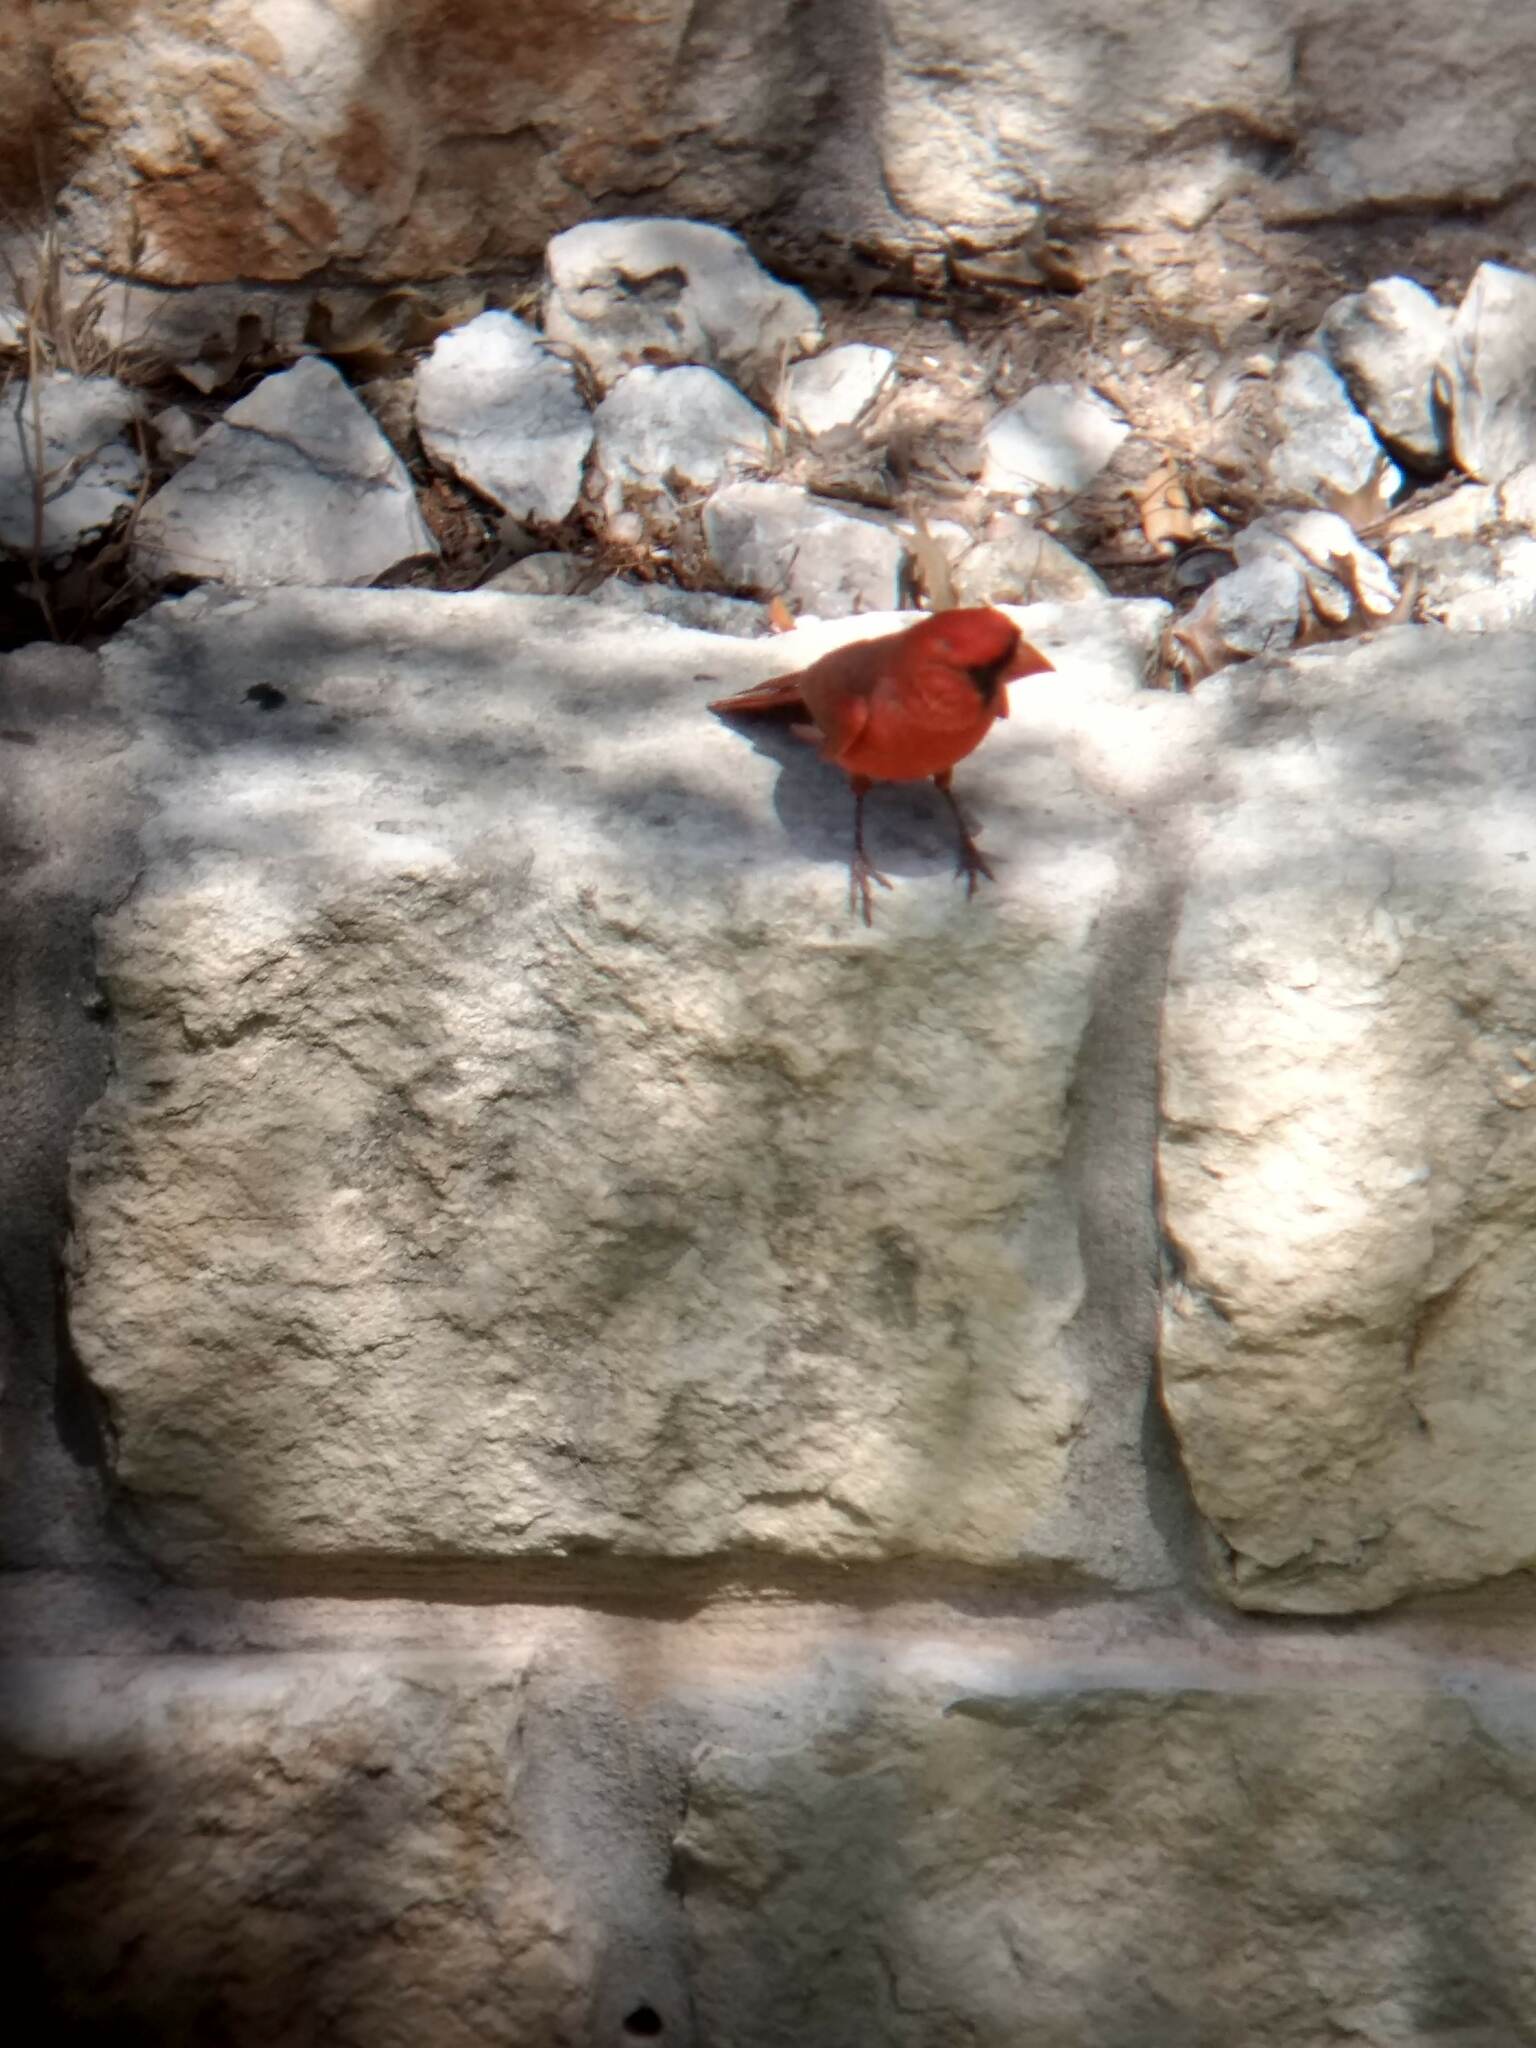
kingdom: Animalia
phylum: Chordata
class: Aves
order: Passeriformes
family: Cardinalidae
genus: Cardinalis
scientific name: Cardinalis cardinalis
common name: Northern cardinal
